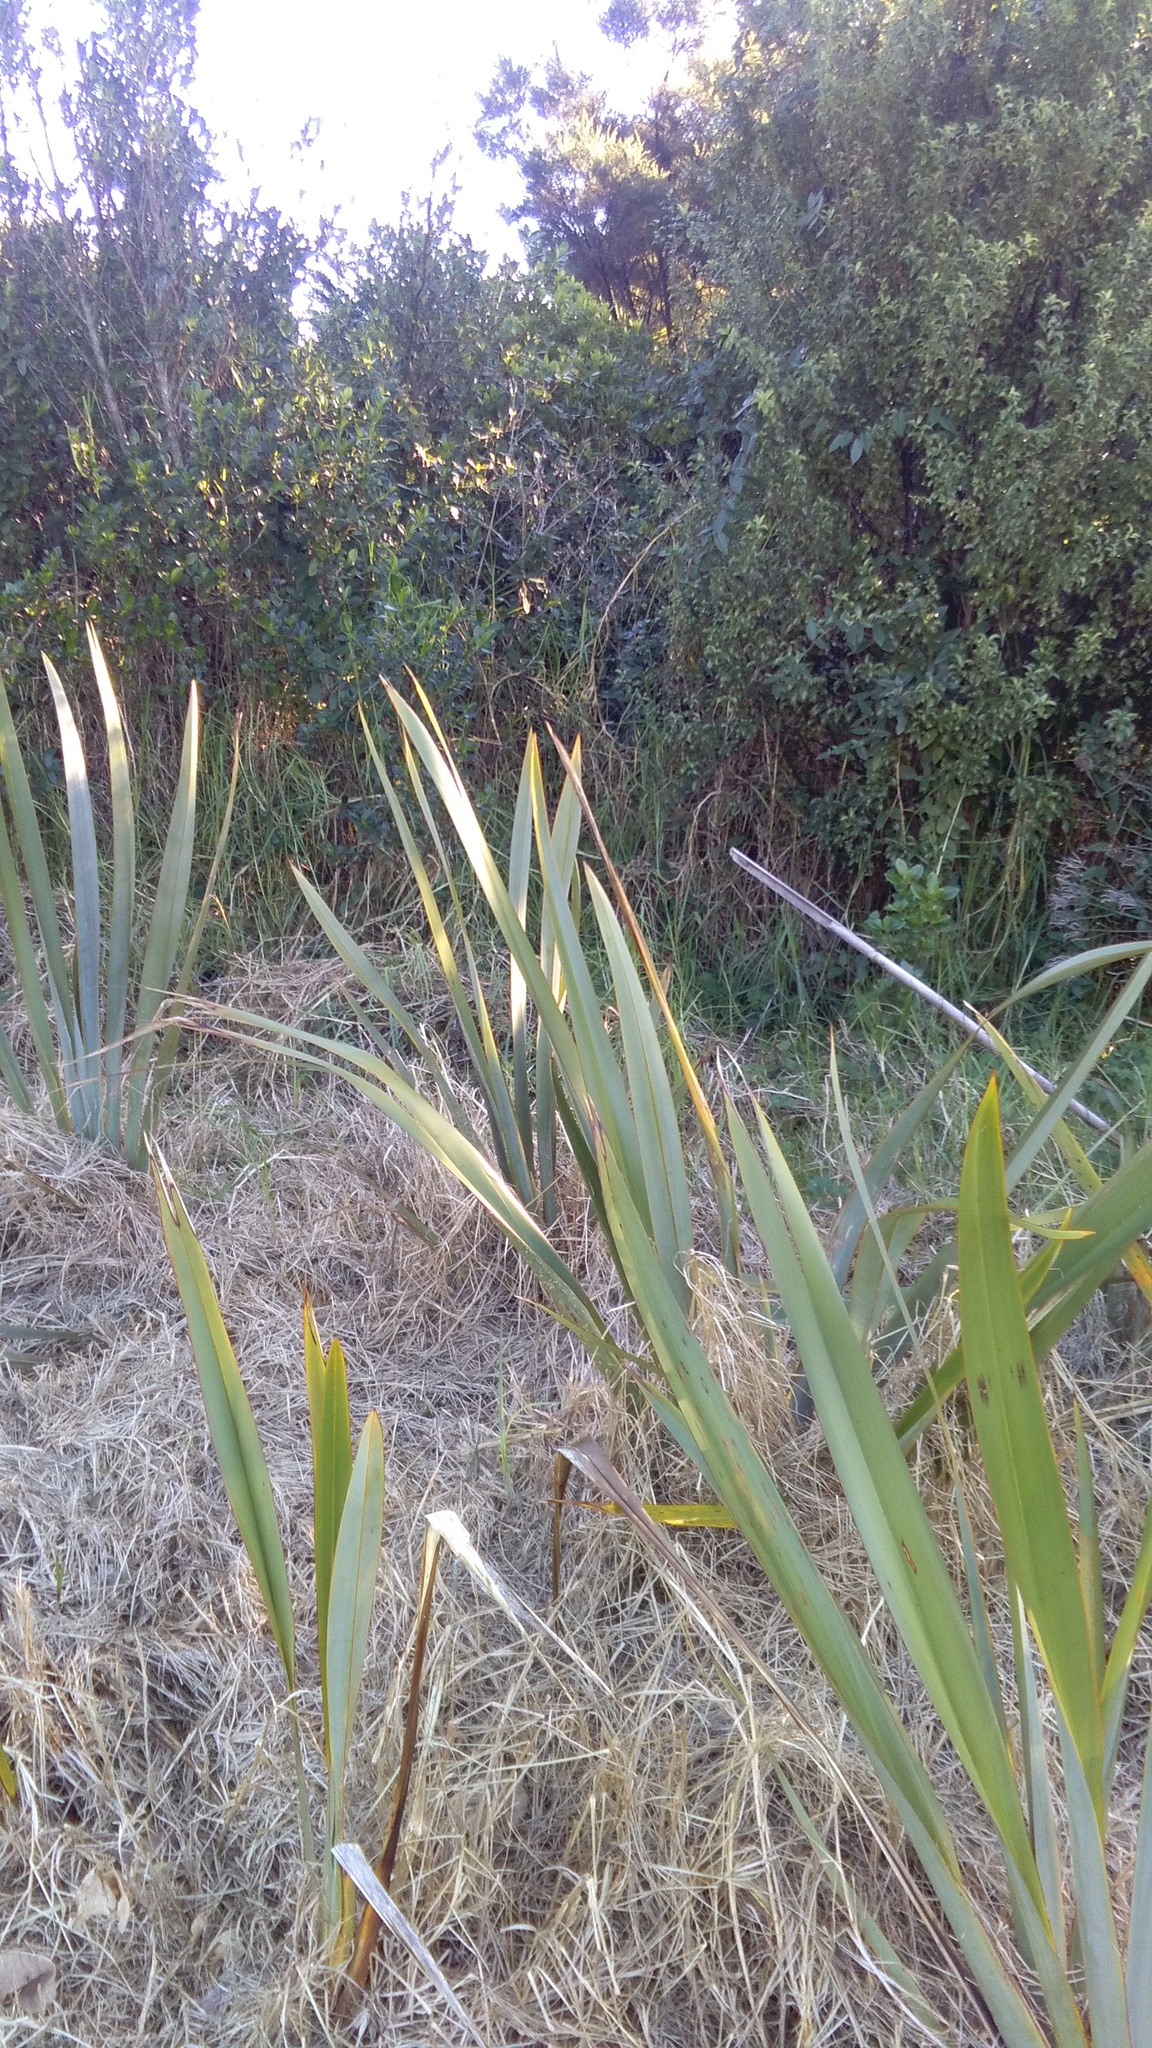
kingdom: Plantae
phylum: Tracheophyta
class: Liliopsida
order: Poales
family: Poaceae
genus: Cenchrus
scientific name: Cenchrus clandestinus
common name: Kikuyugrass
